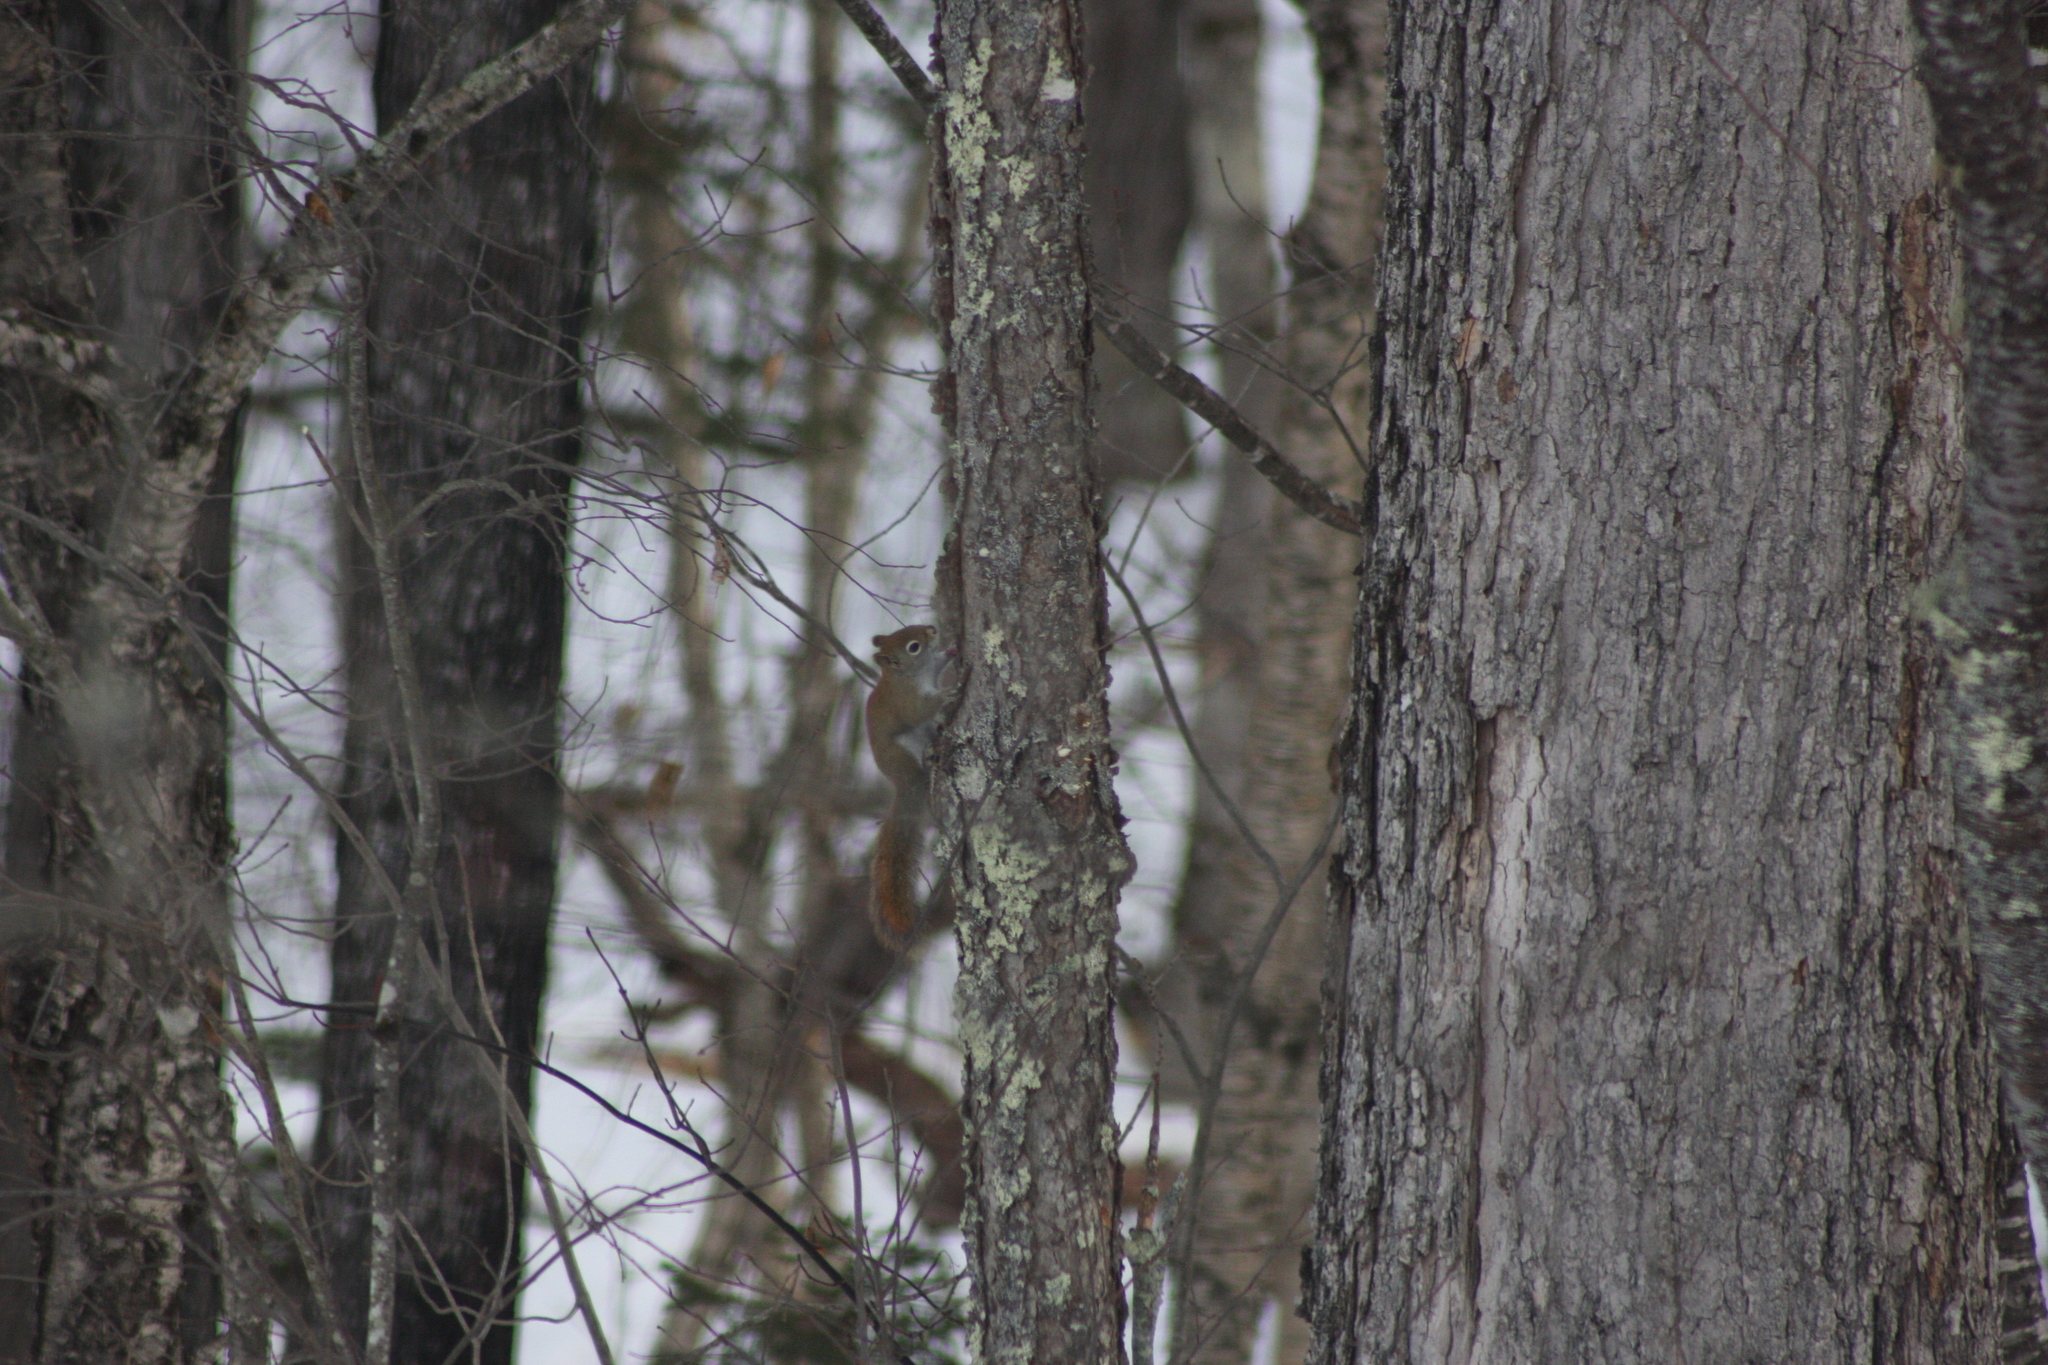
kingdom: Animalia
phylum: Chordata
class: Mammalia
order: Rodentia
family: Sciuridae
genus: Tamiasciurus
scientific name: Tamiasciurus hudsonicus
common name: Red squirrel
